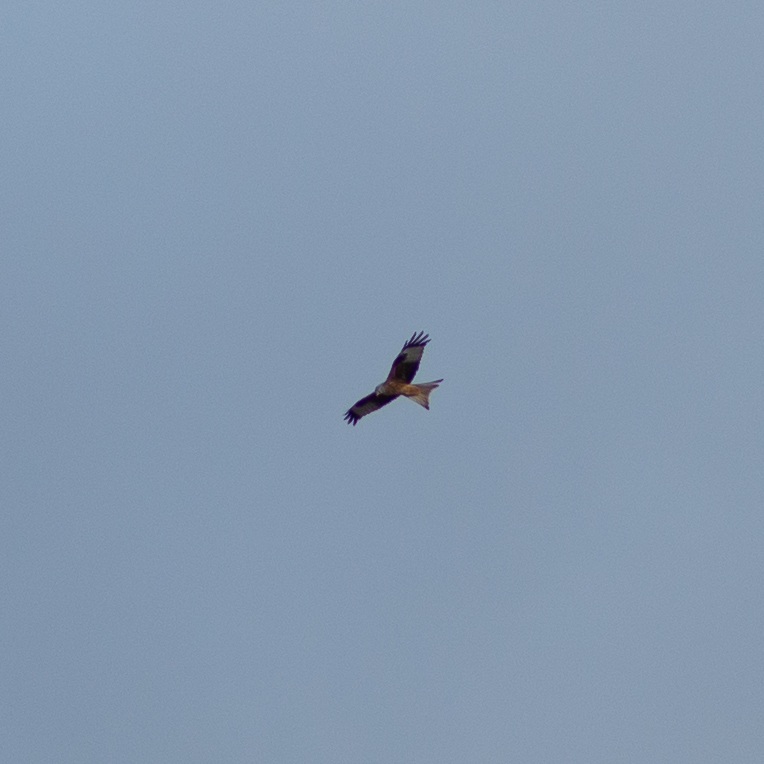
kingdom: Animalia
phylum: Chordata
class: Aves
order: Accipitriformes
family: Accipitridae
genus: Milvus
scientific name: Milvus milvus
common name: Red kite
